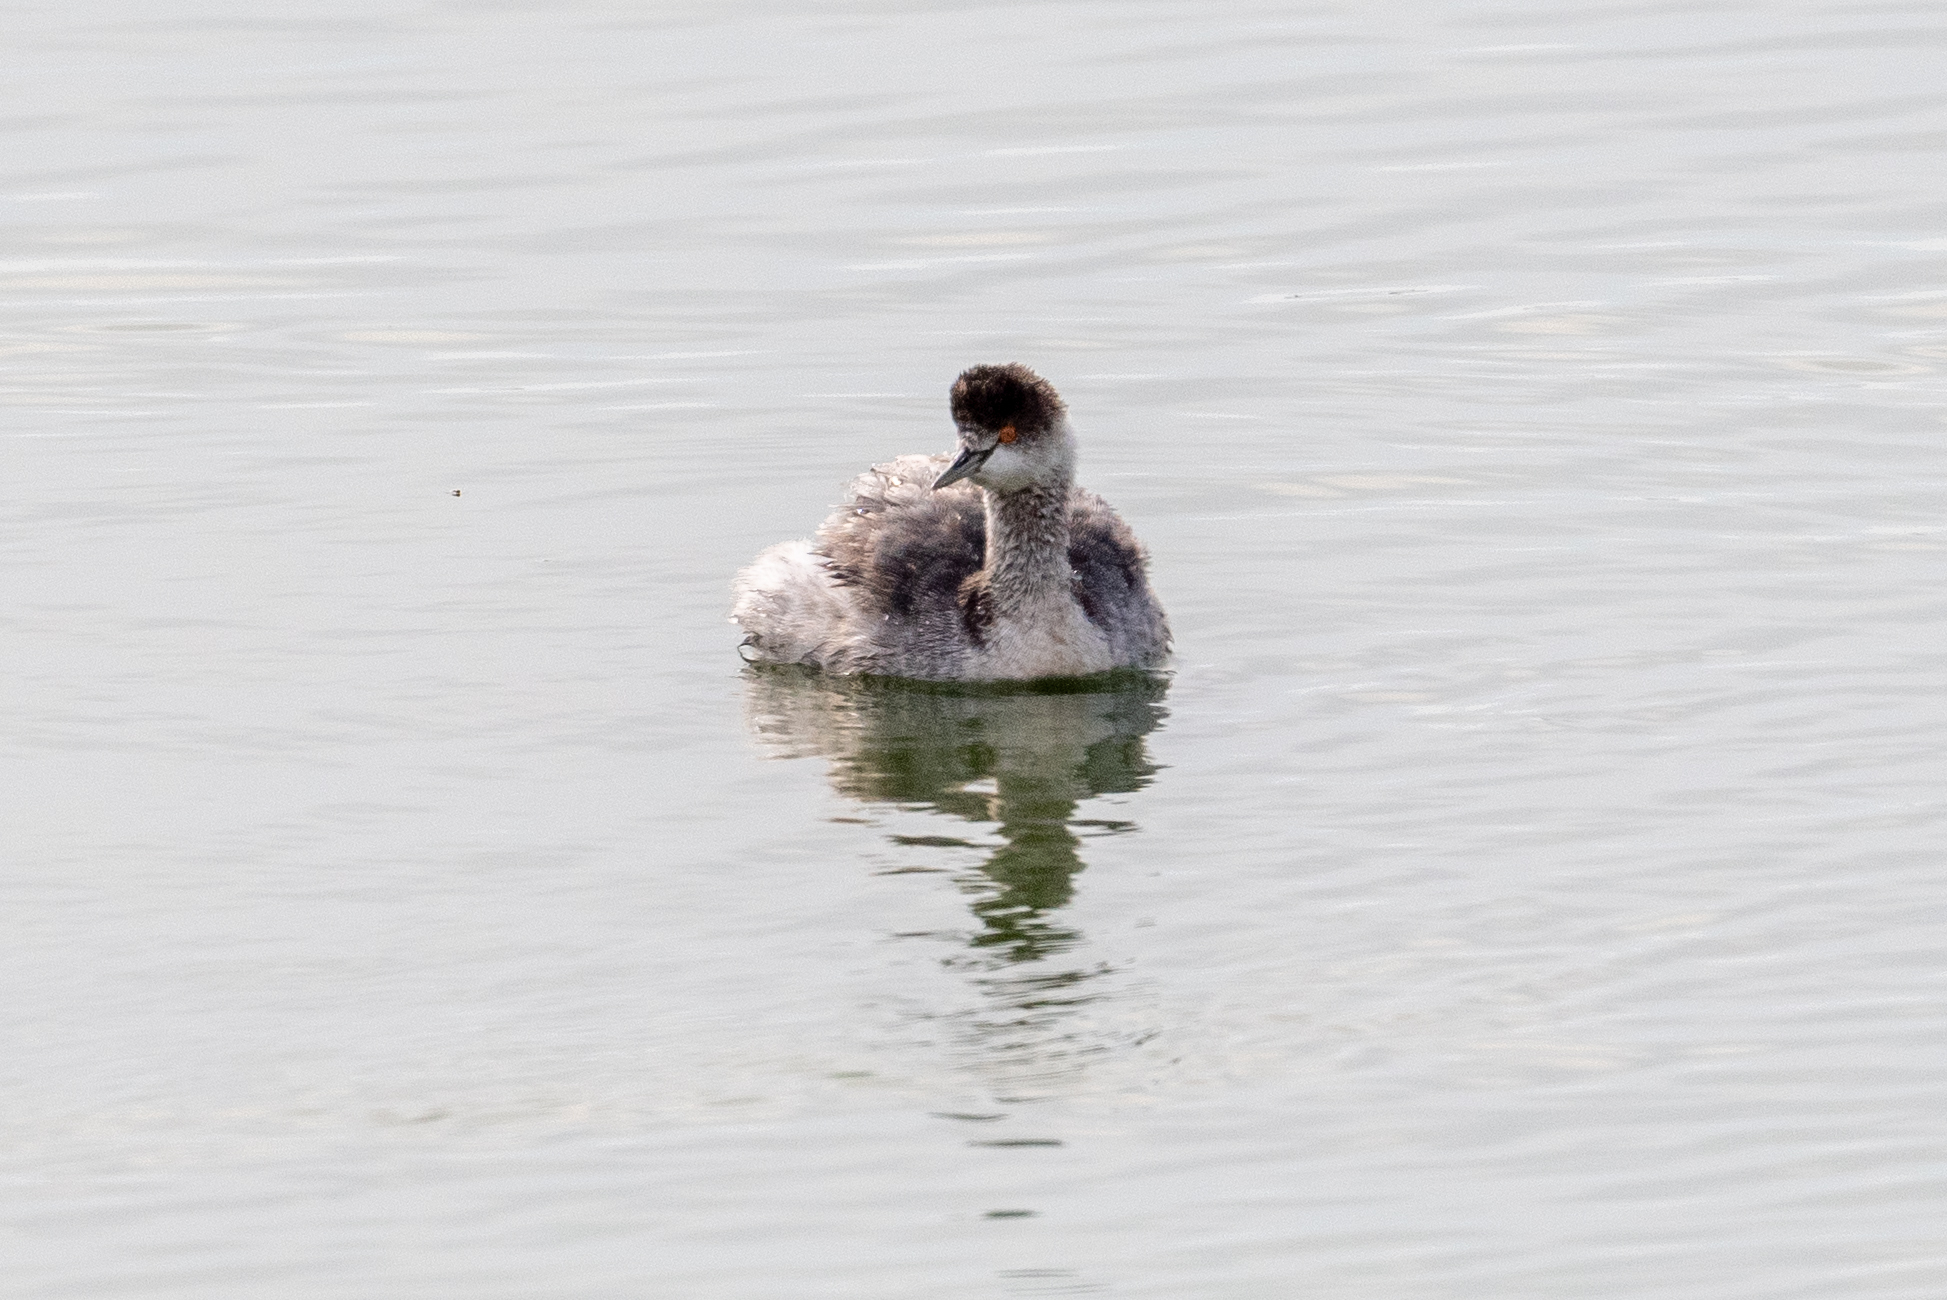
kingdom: Animalia
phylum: Chordata
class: Aves
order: Podicipediformes
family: Podicipedidae
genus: Podiceps
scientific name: Podiceps nigricollis
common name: Black-necked grebe
